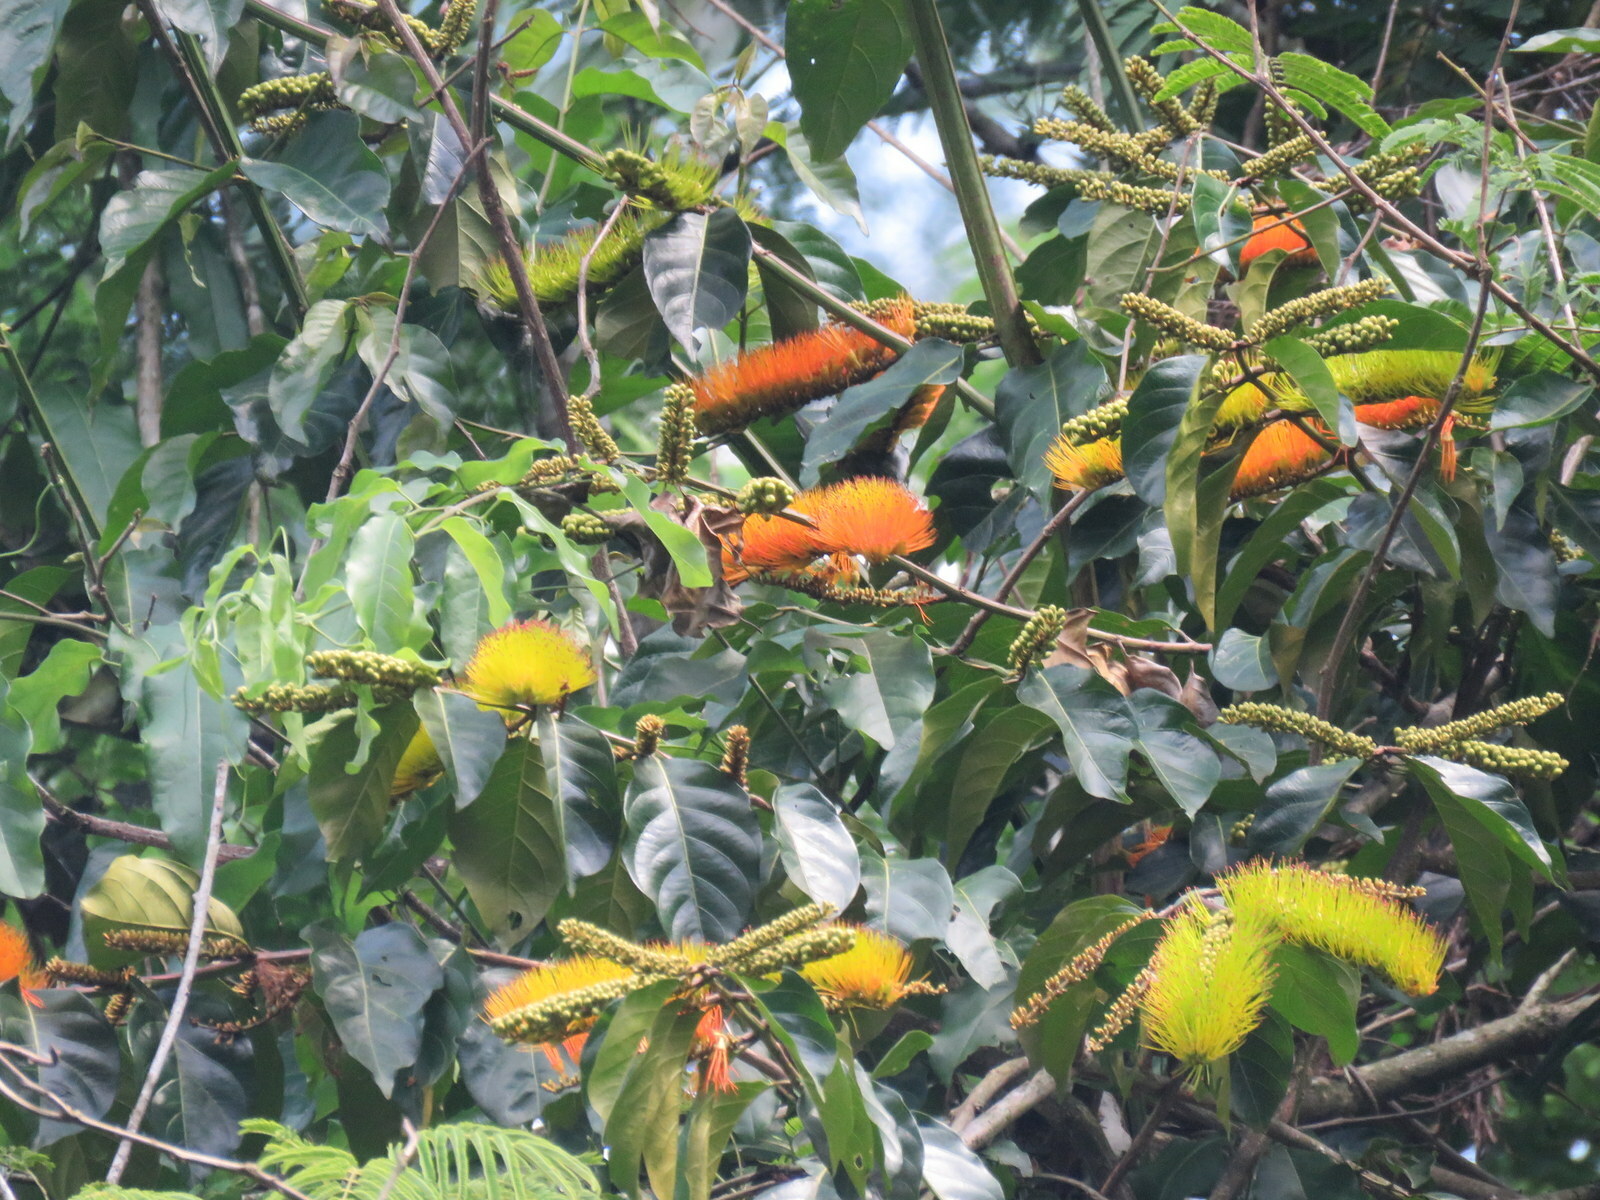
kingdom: Plantae
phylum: Tracheophyta
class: Magnoliopsida
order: Myrtales
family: Combretaceae
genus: Combretum
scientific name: Combretum fruticosum
